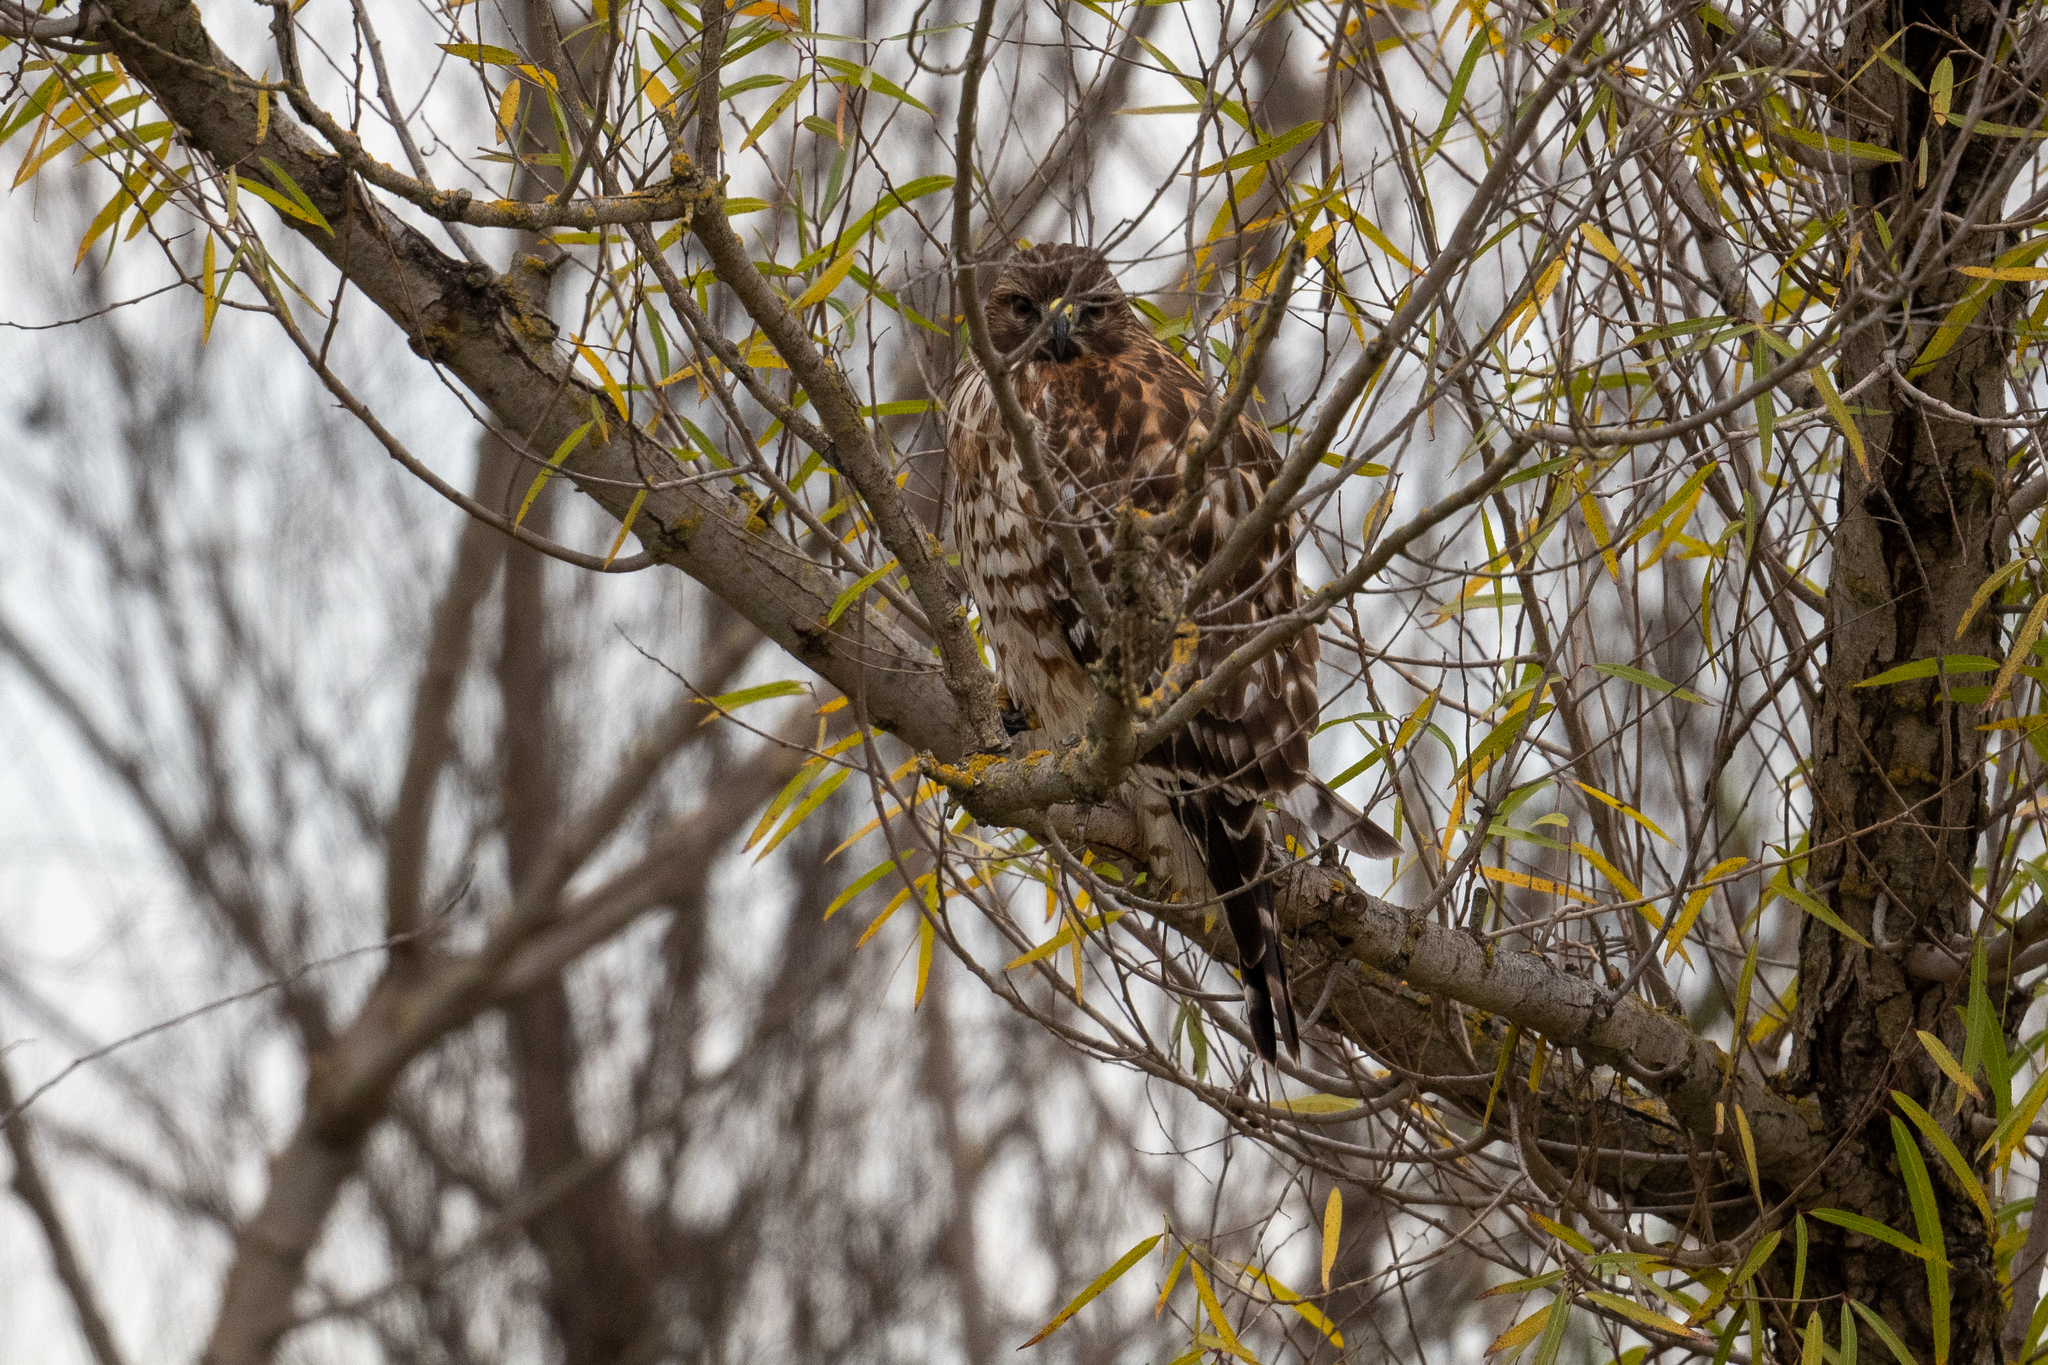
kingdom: Animalia
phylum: Chordata
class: Aves
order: Accipitriformes
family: Accipitridae
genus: Buteo
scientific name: Buteo lineatus
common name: Red-shouldered hawk
